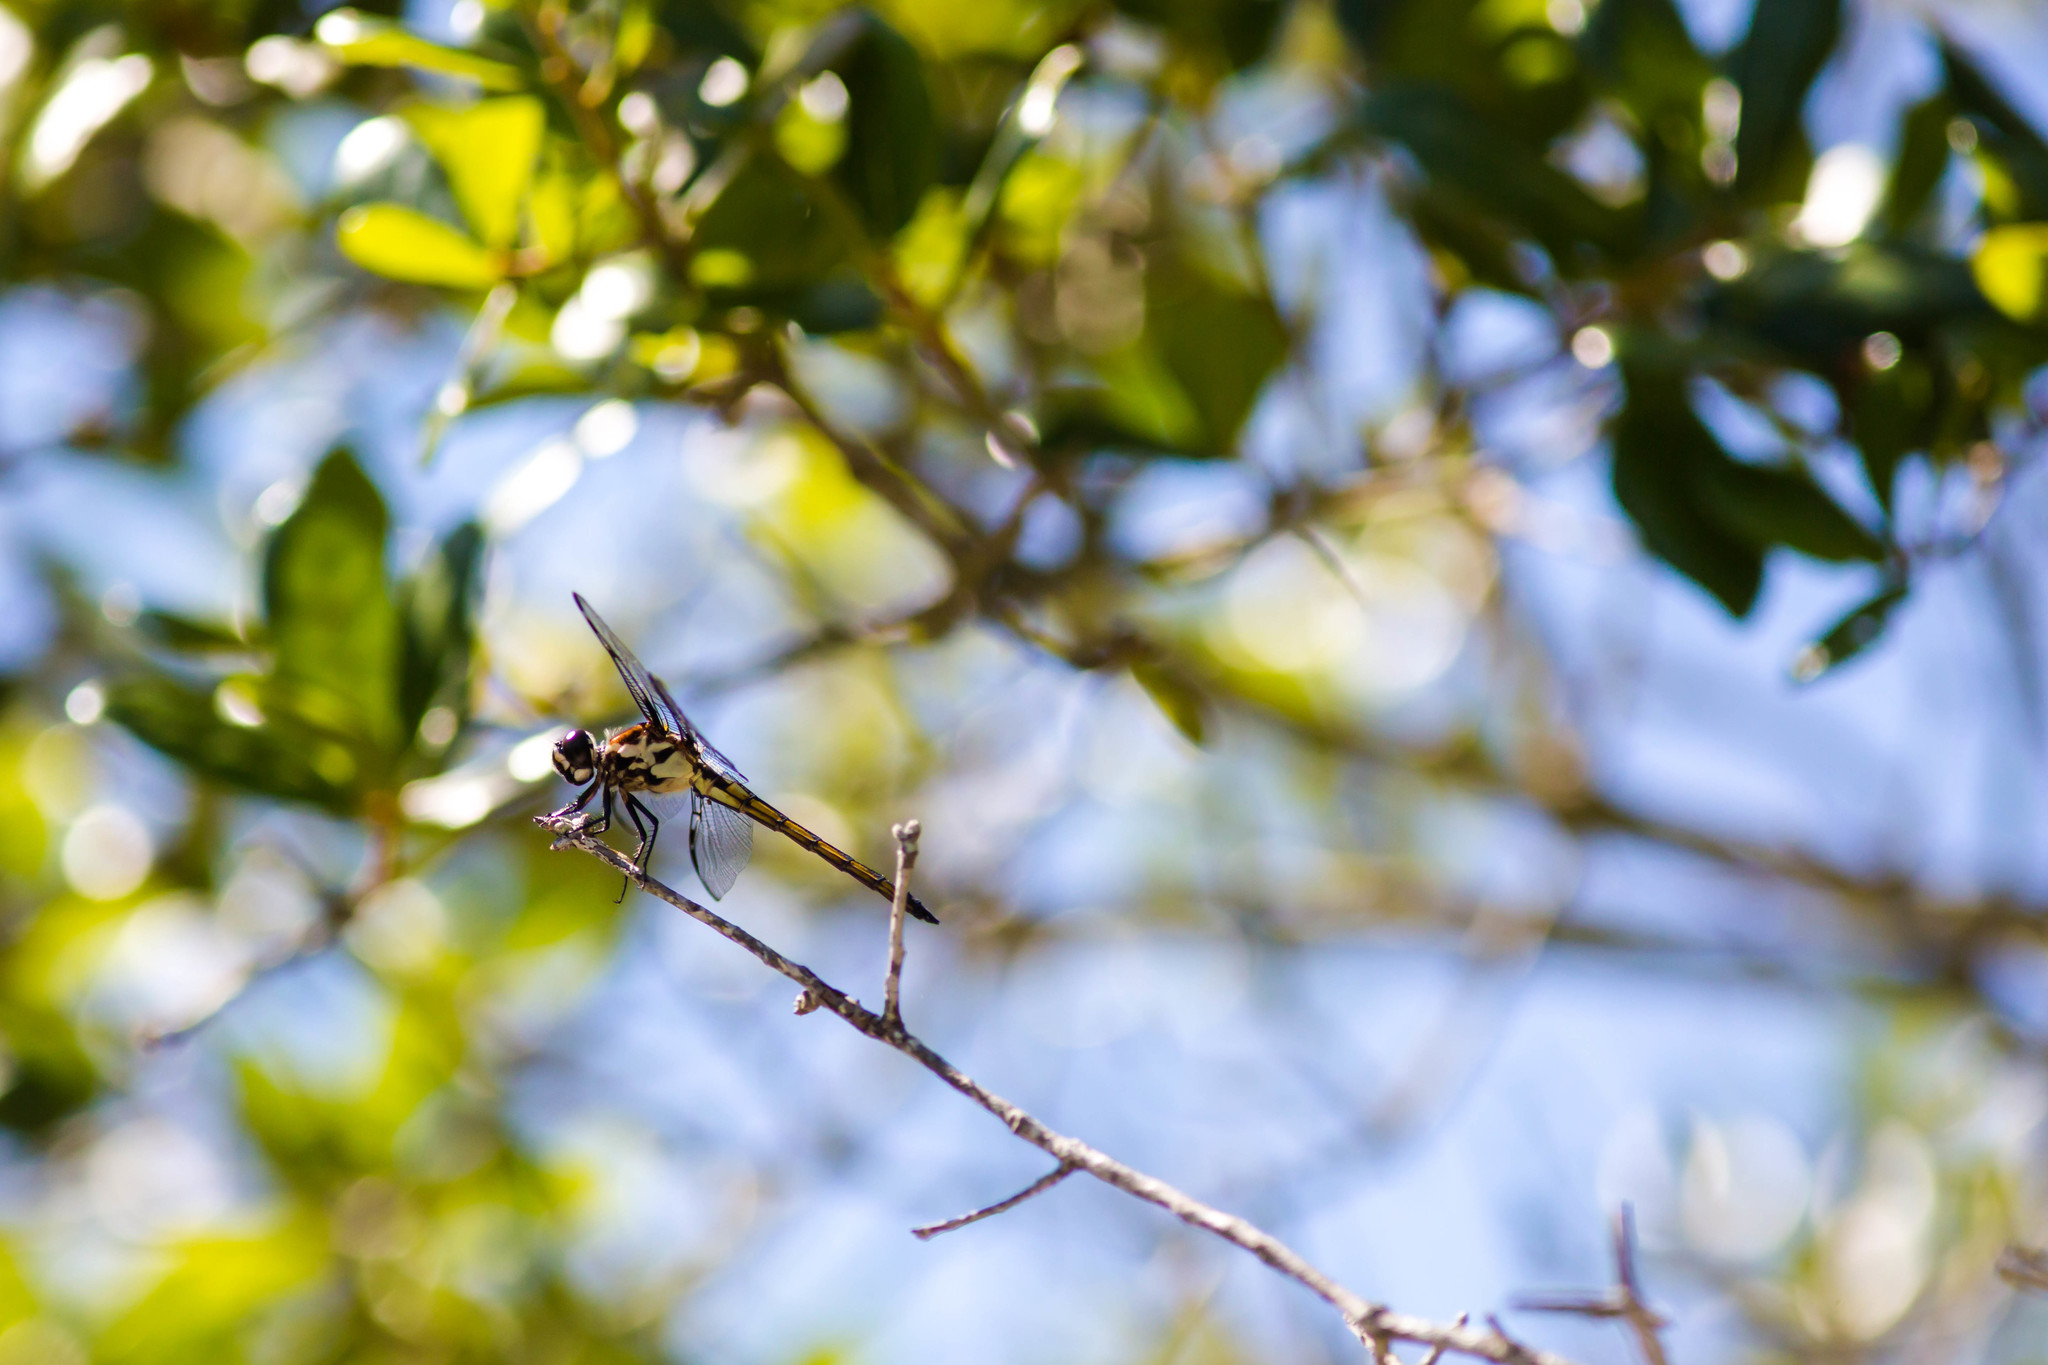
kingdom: Animalia
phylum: Arthropoda
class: Insecta
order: Odonata
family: Libellulidae
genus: Libellula
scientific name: Libellula axilena
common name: Bar-winged skimmer
